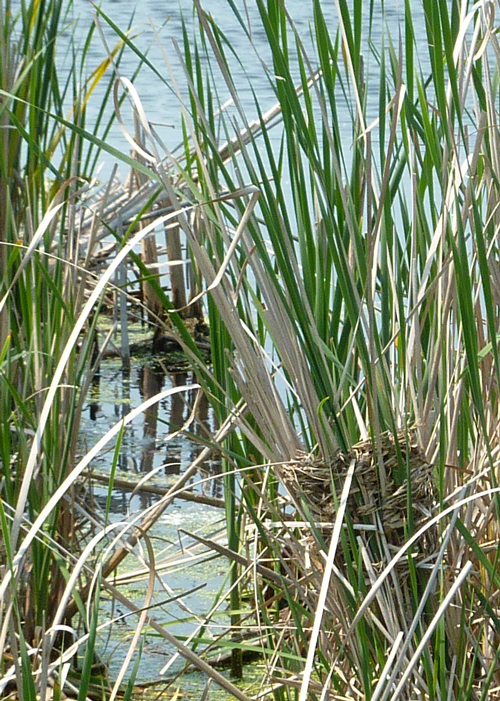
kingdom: Animalia
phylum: Chordata
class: Aves
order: Passeriformes
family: Icteridae
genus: Agelaius
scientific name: Agelaius phoeniceus
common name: Red-winged blackbird
